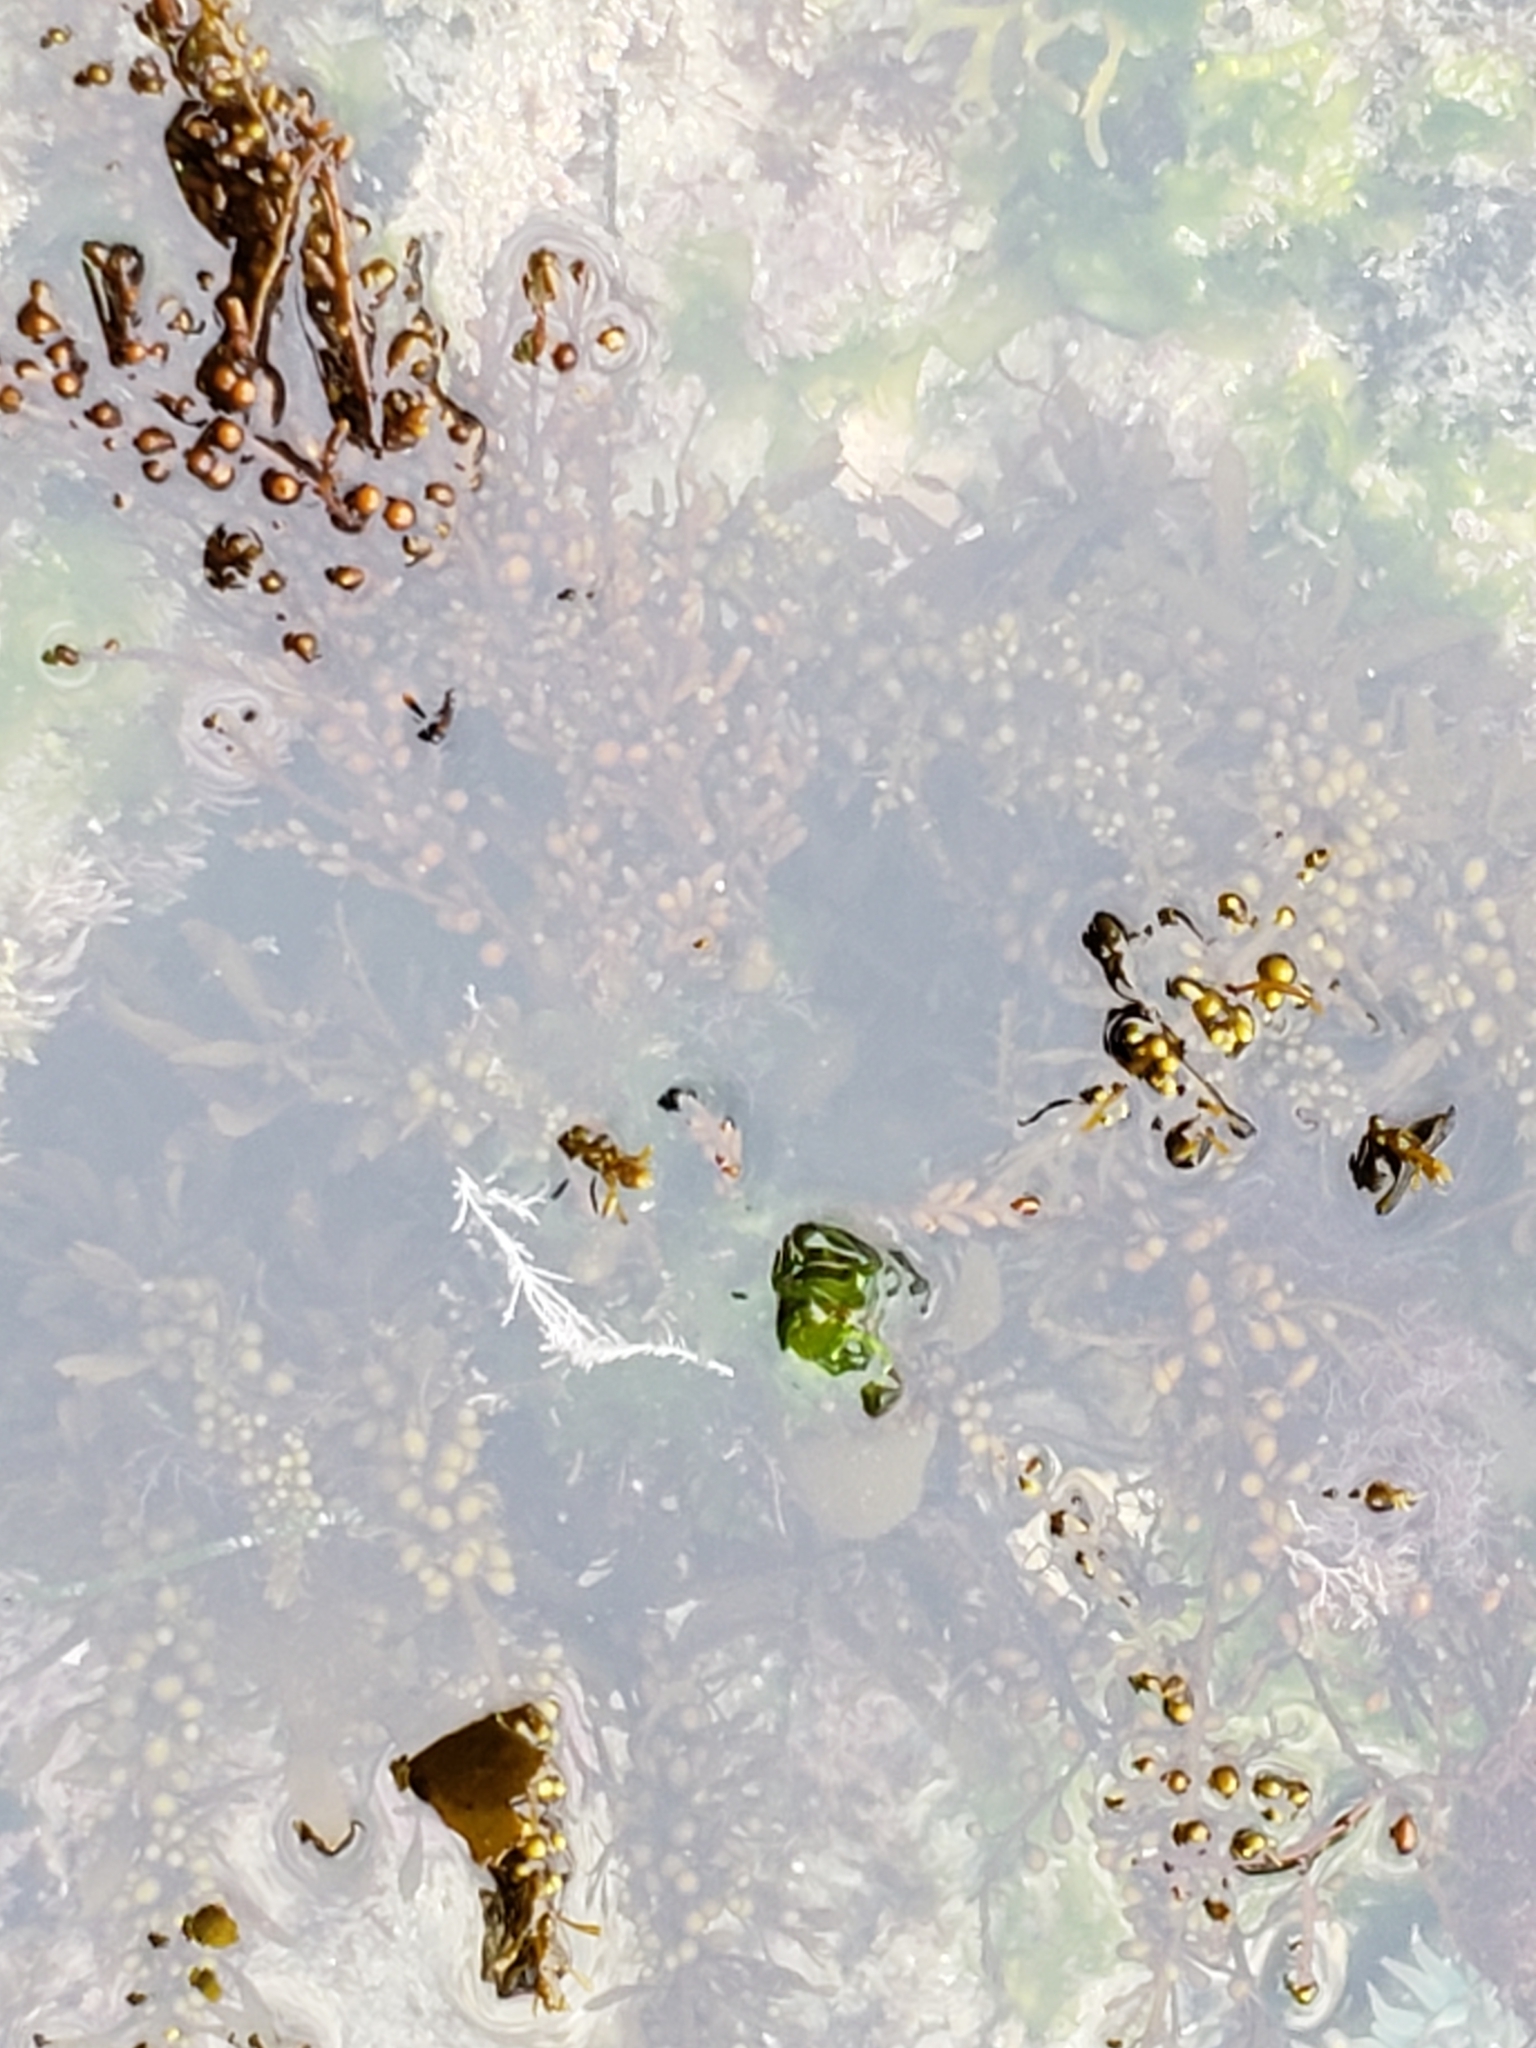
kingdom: Chromista
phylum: Ochrophyta
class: Phaeophyceae
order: Fucales
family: Sargassaceae
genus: Sargassum
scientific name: Sargassum muticum
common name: Japweed
